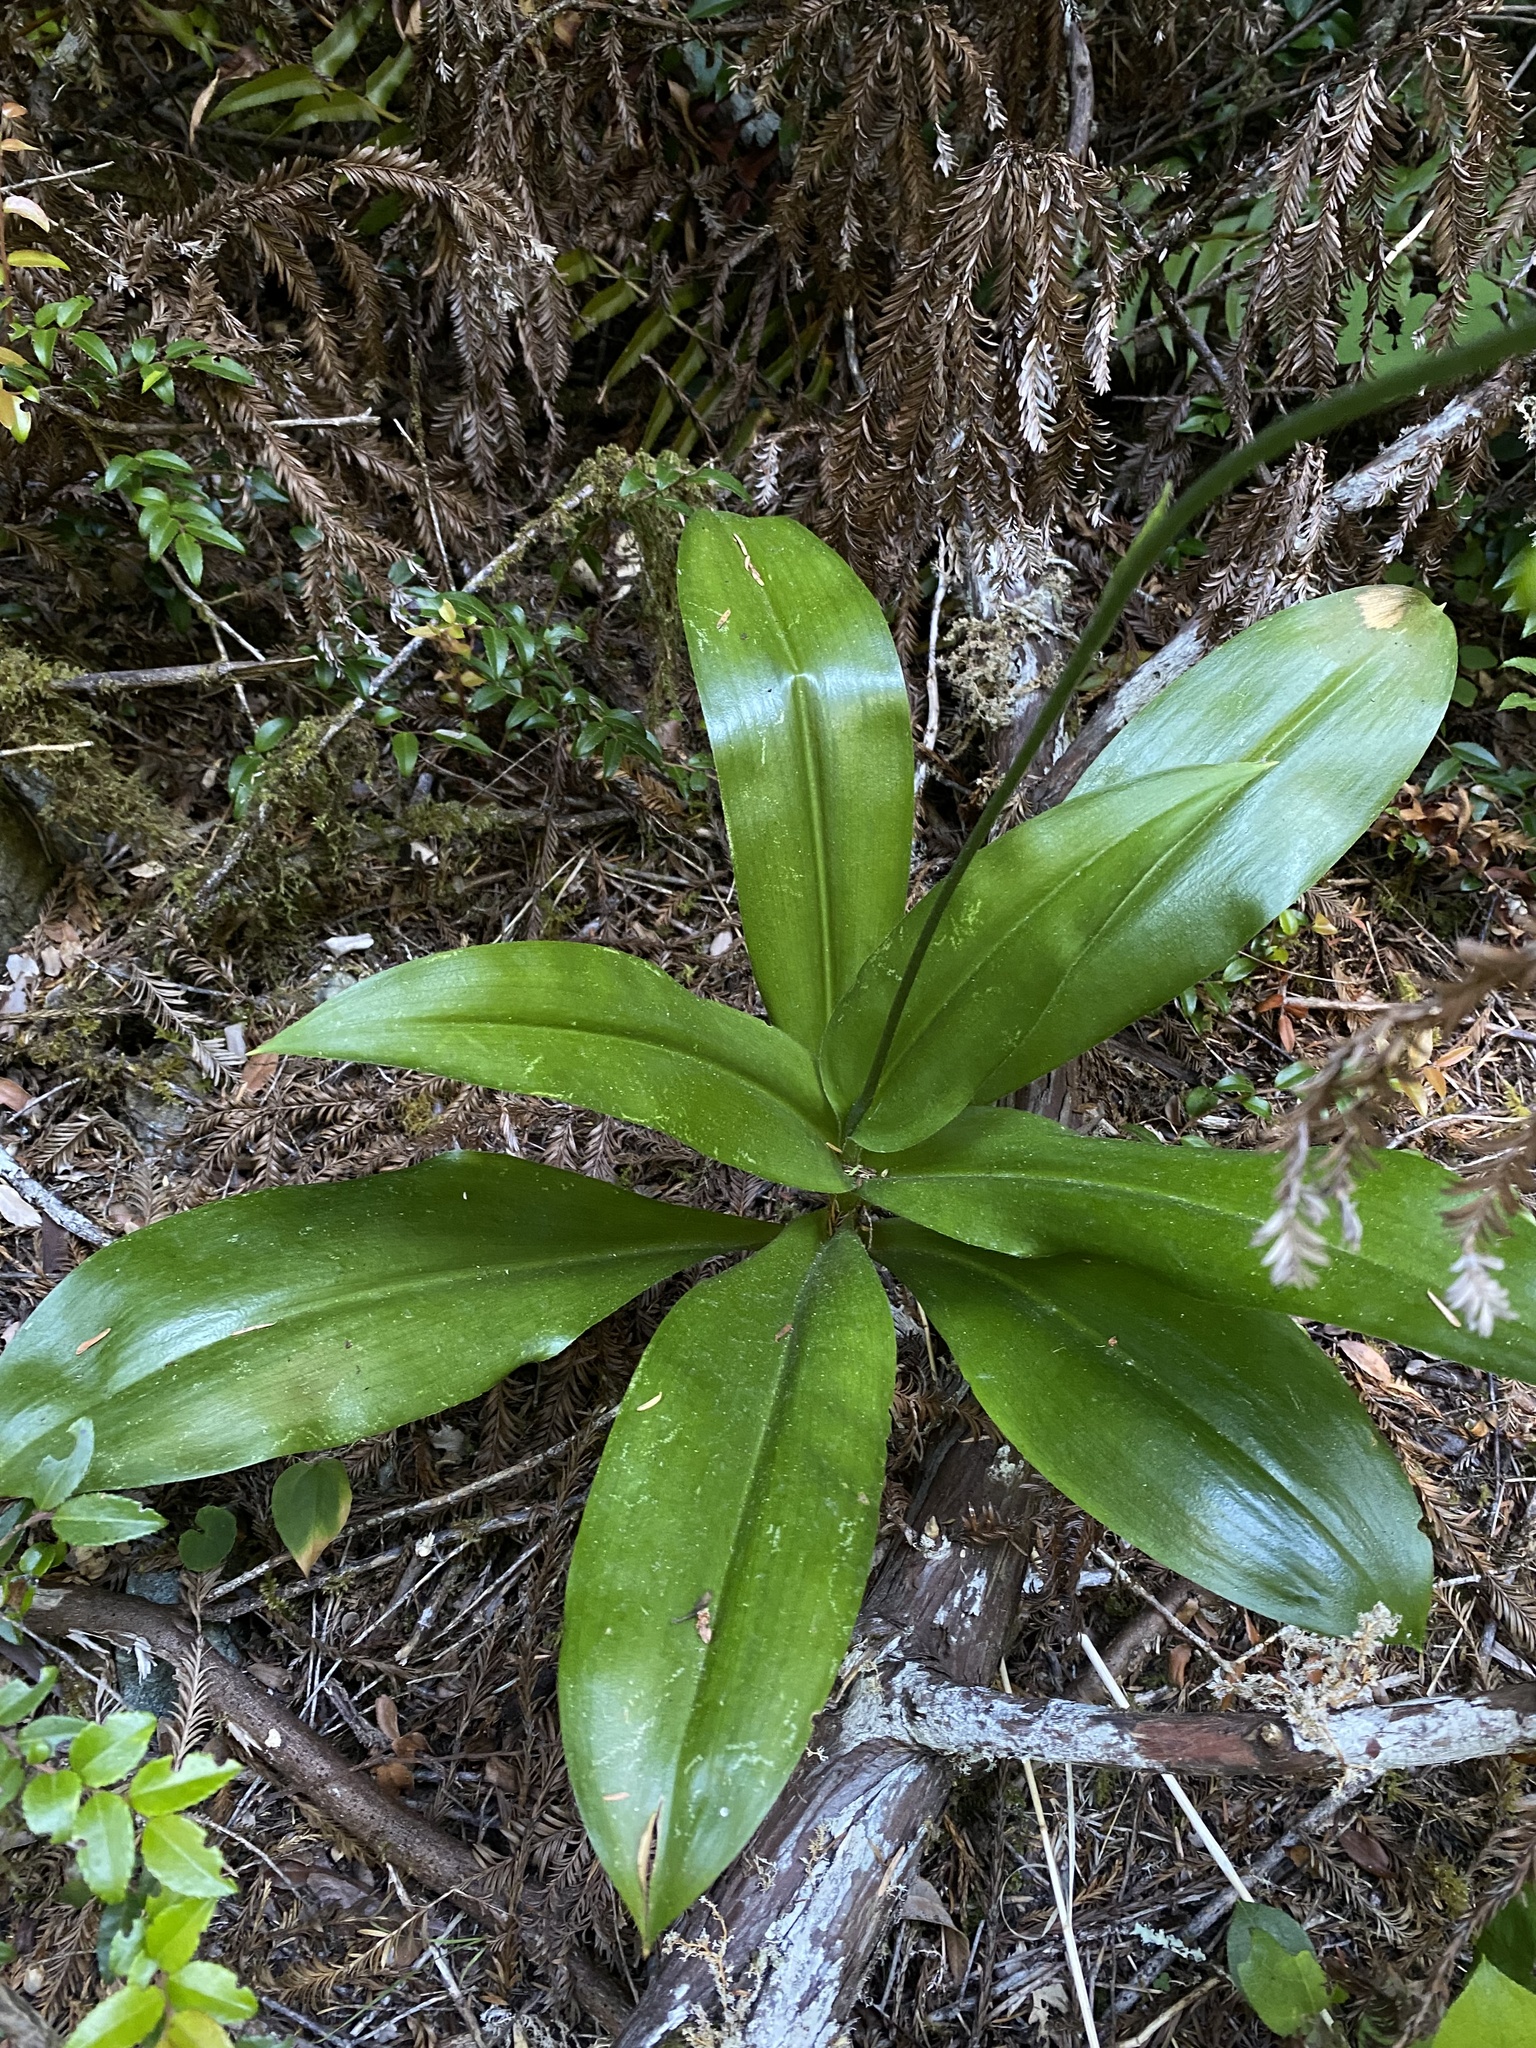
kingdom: Plantae
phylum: Tracheophyta
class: Liliopsida
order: Liliales
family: Liliaceae
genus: Clintonia
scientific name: Clintonia andrewsiana
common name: Red clintonia
